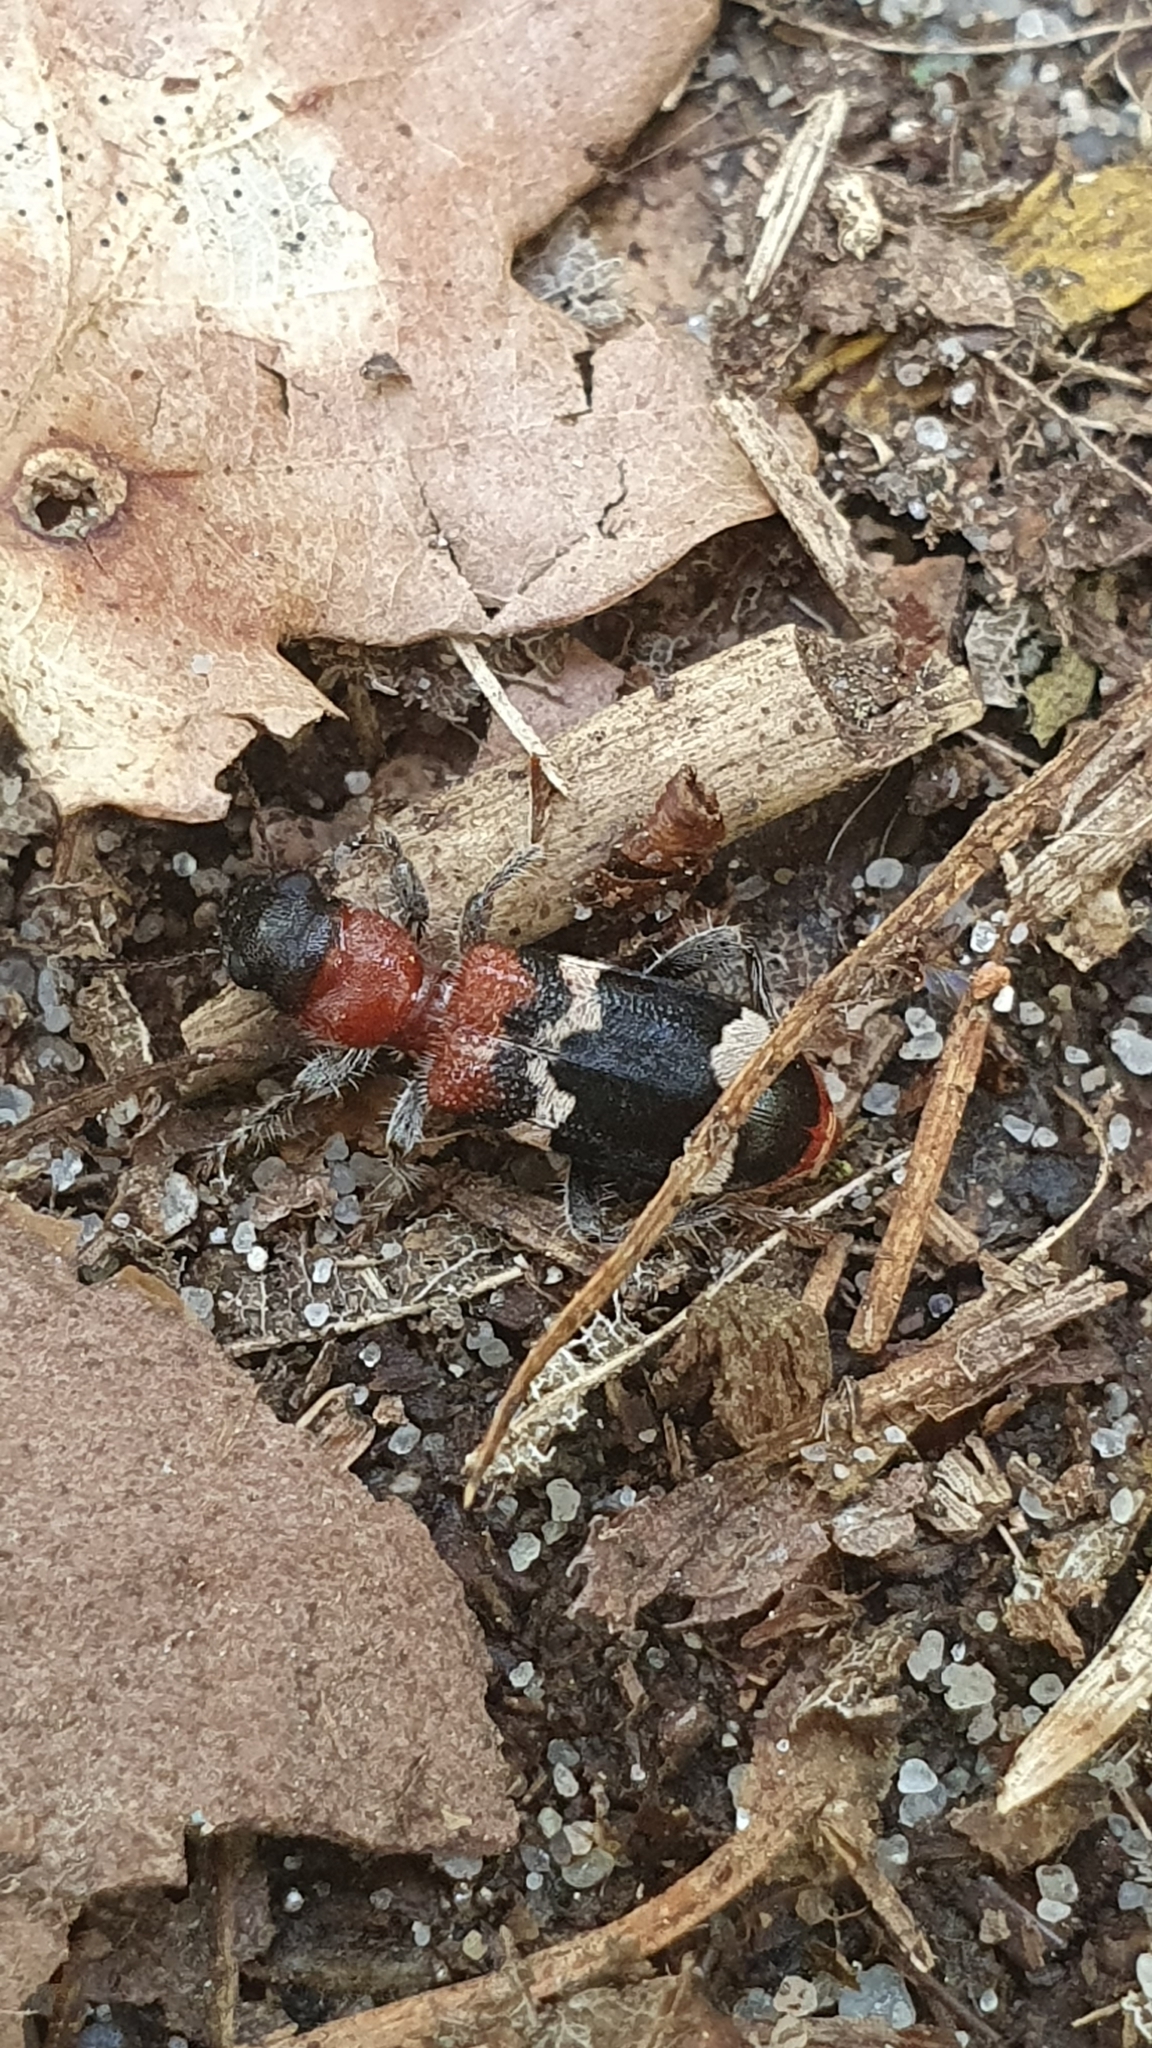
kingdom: Animalia
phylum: Arthropoda
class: Insecta
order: Coleoptera
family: Cleridae
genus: Thanasimus
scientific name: Thanasimus formicarius
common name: Ant beetle
